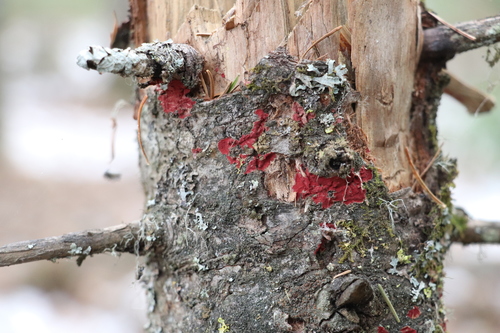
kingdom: Fungi
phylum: Basidiomycota
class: Agaricomycetes
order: Hymenochaetales
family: Hymenochaetaceae
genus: Hymenochaete
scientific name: Hymenochaete cruenta
